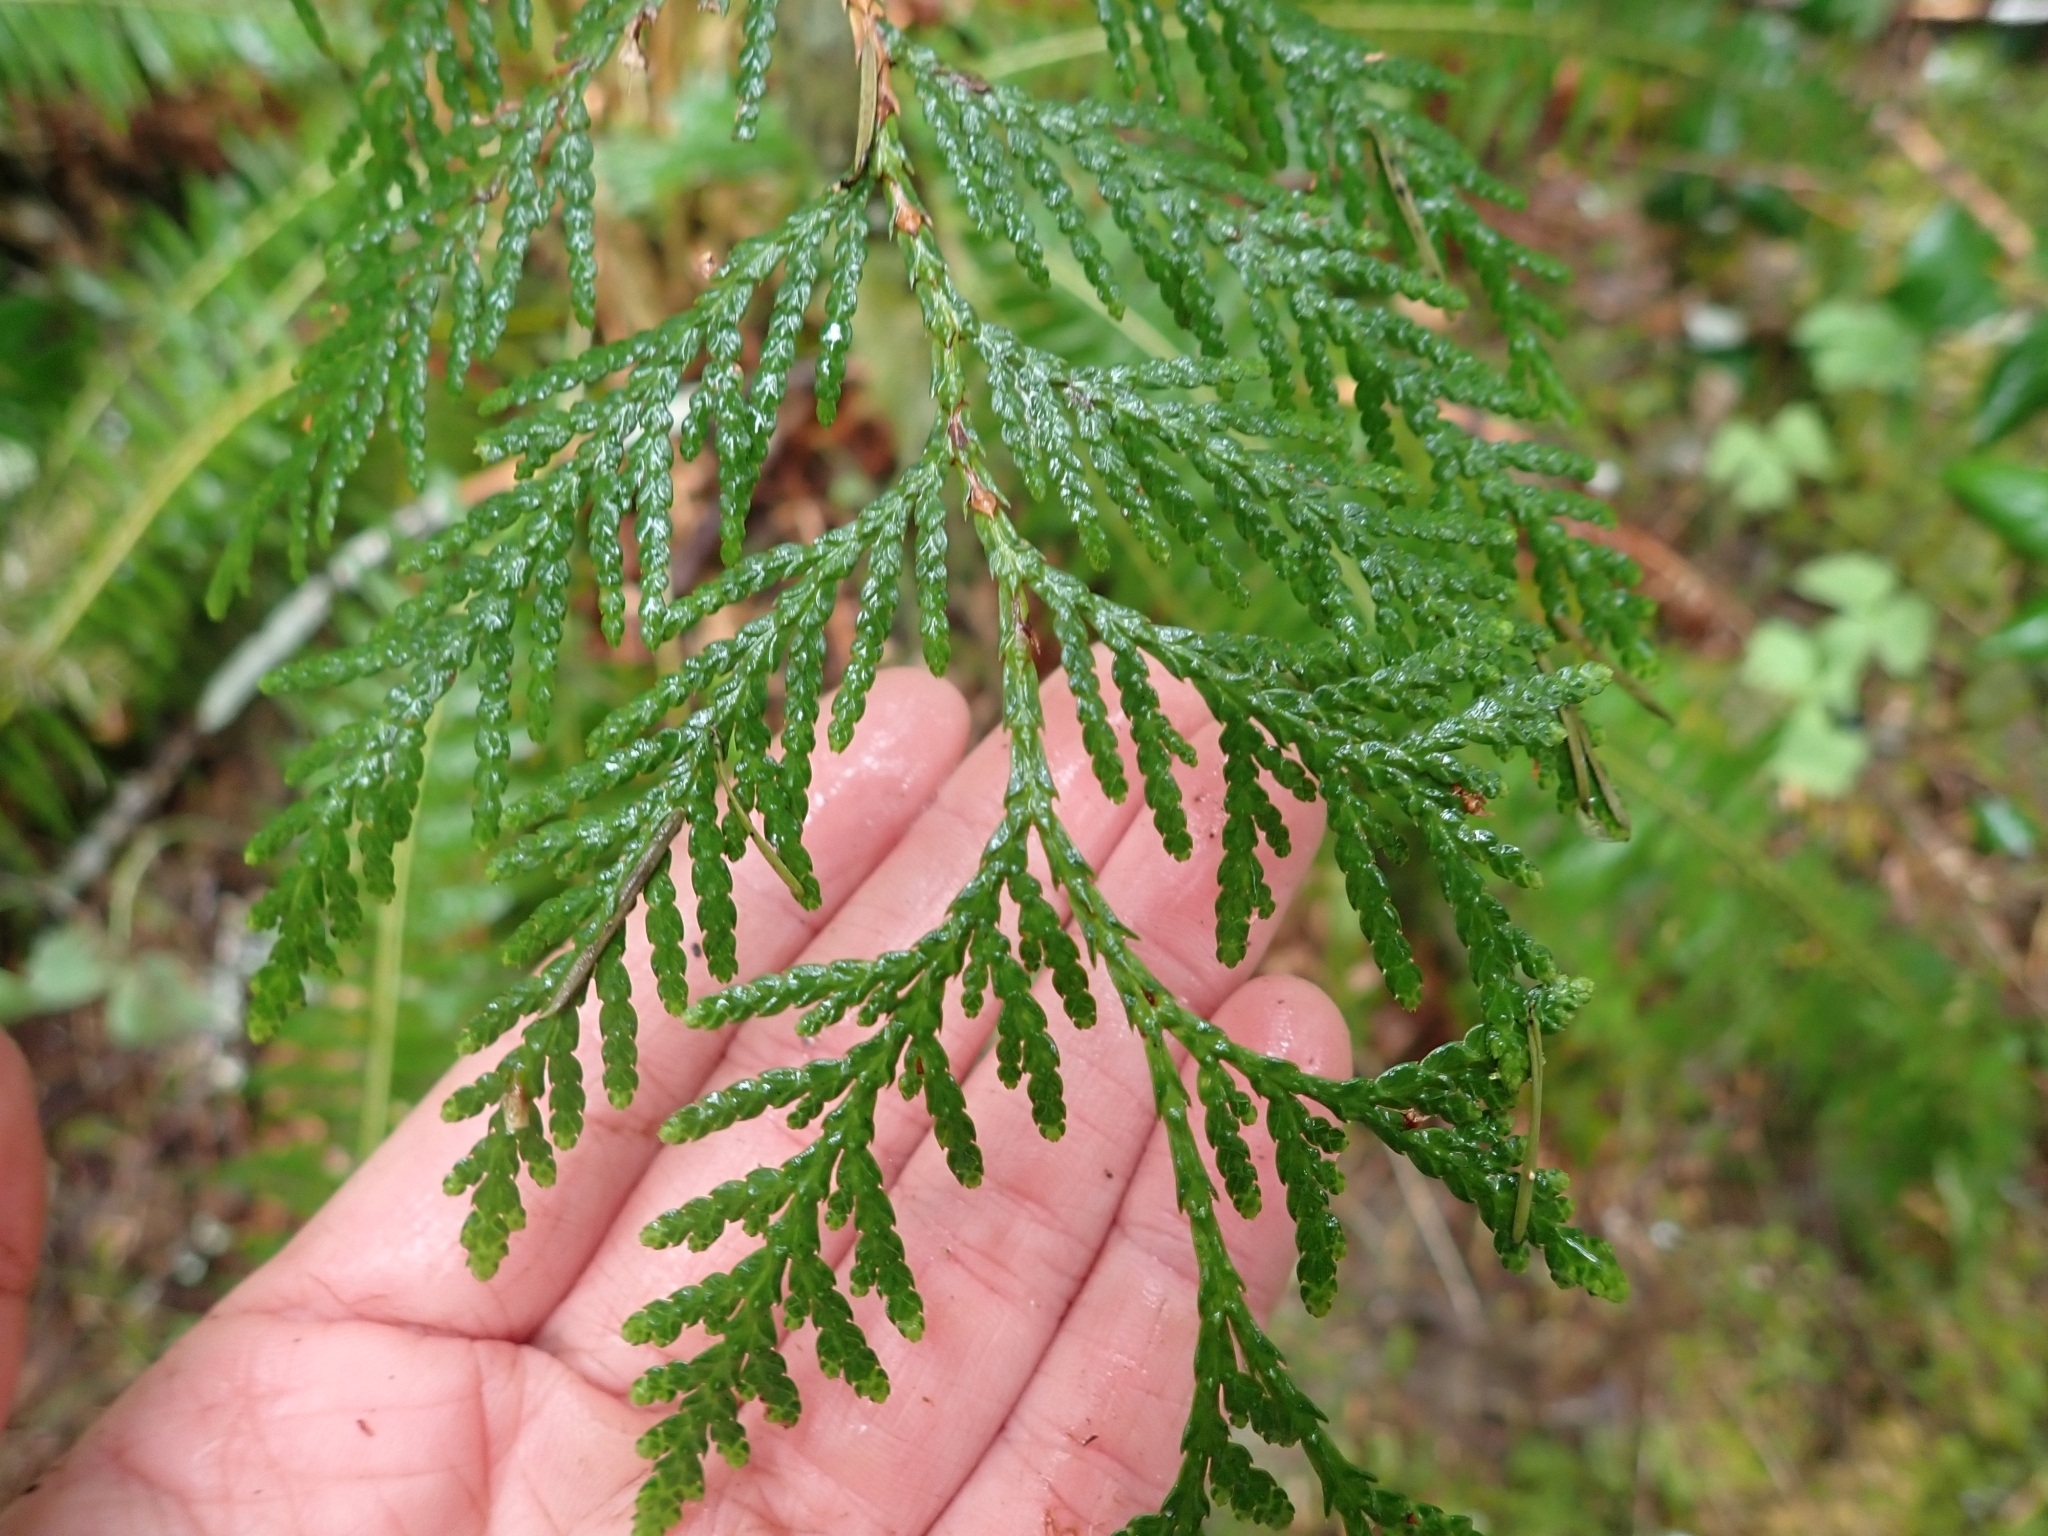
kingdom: Plantae
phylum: Tracheophyta
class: Pinopsida
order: Pinales
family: Cupressaceae
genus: Thuja
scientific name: Thuja plicata
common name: Western red-cedar
